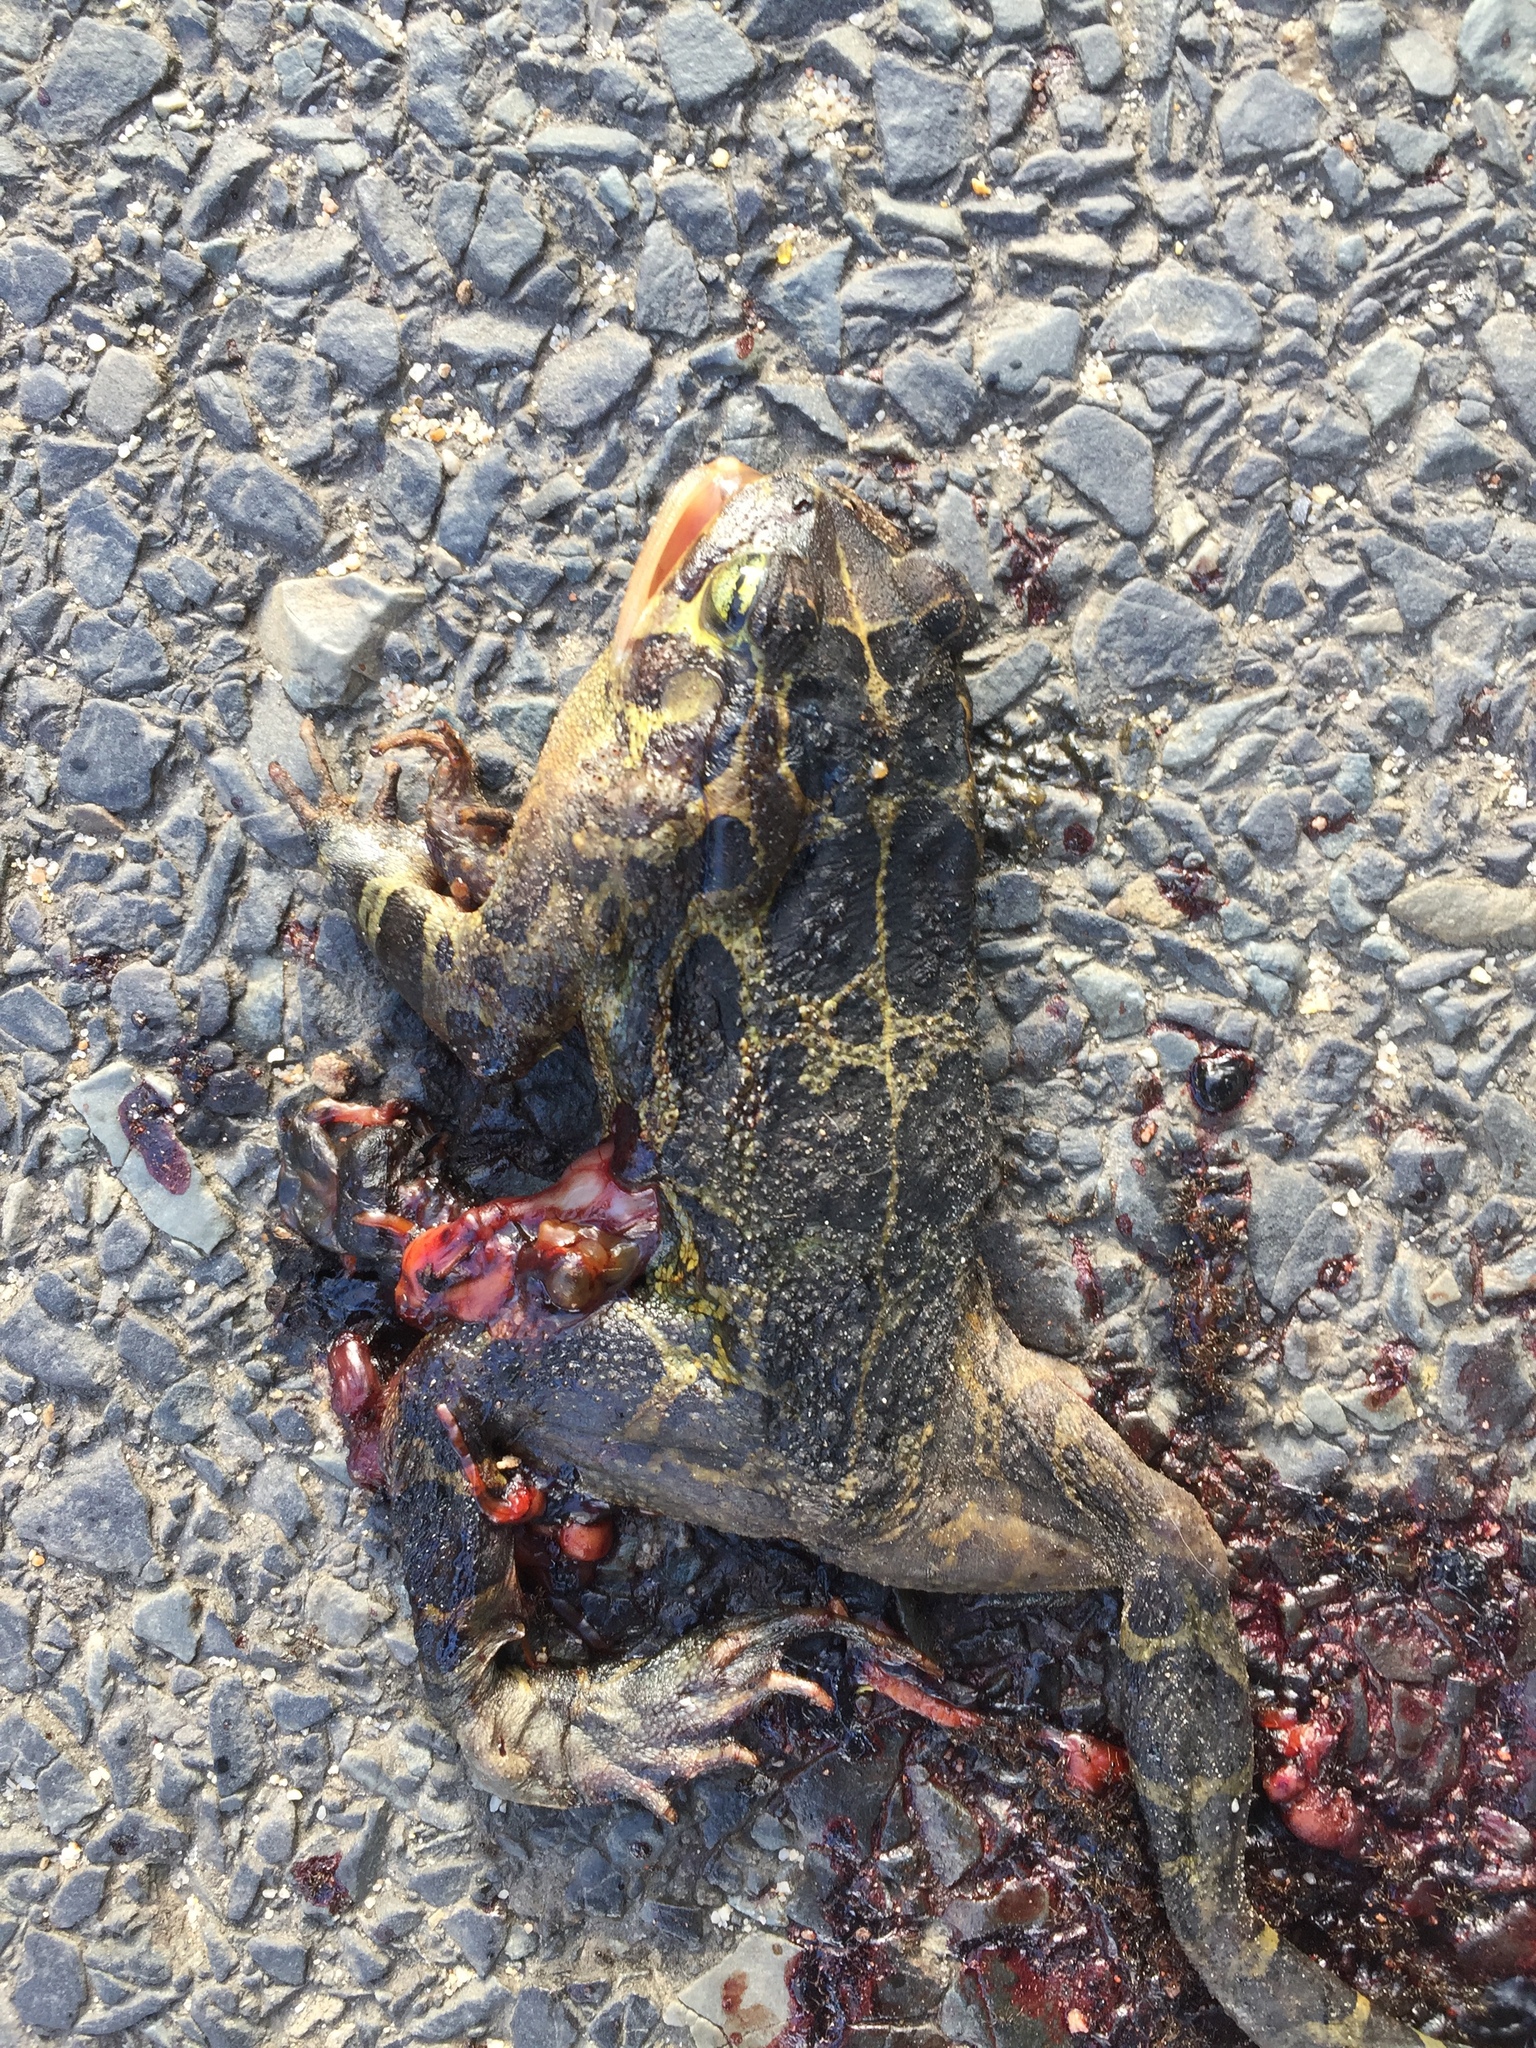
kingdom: Animalia
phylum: Chordata
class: Amphibia
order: Anura
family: Bufonidae
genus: Sclerophrys
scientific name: Sclerophrys pantherina
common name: Panther toad
